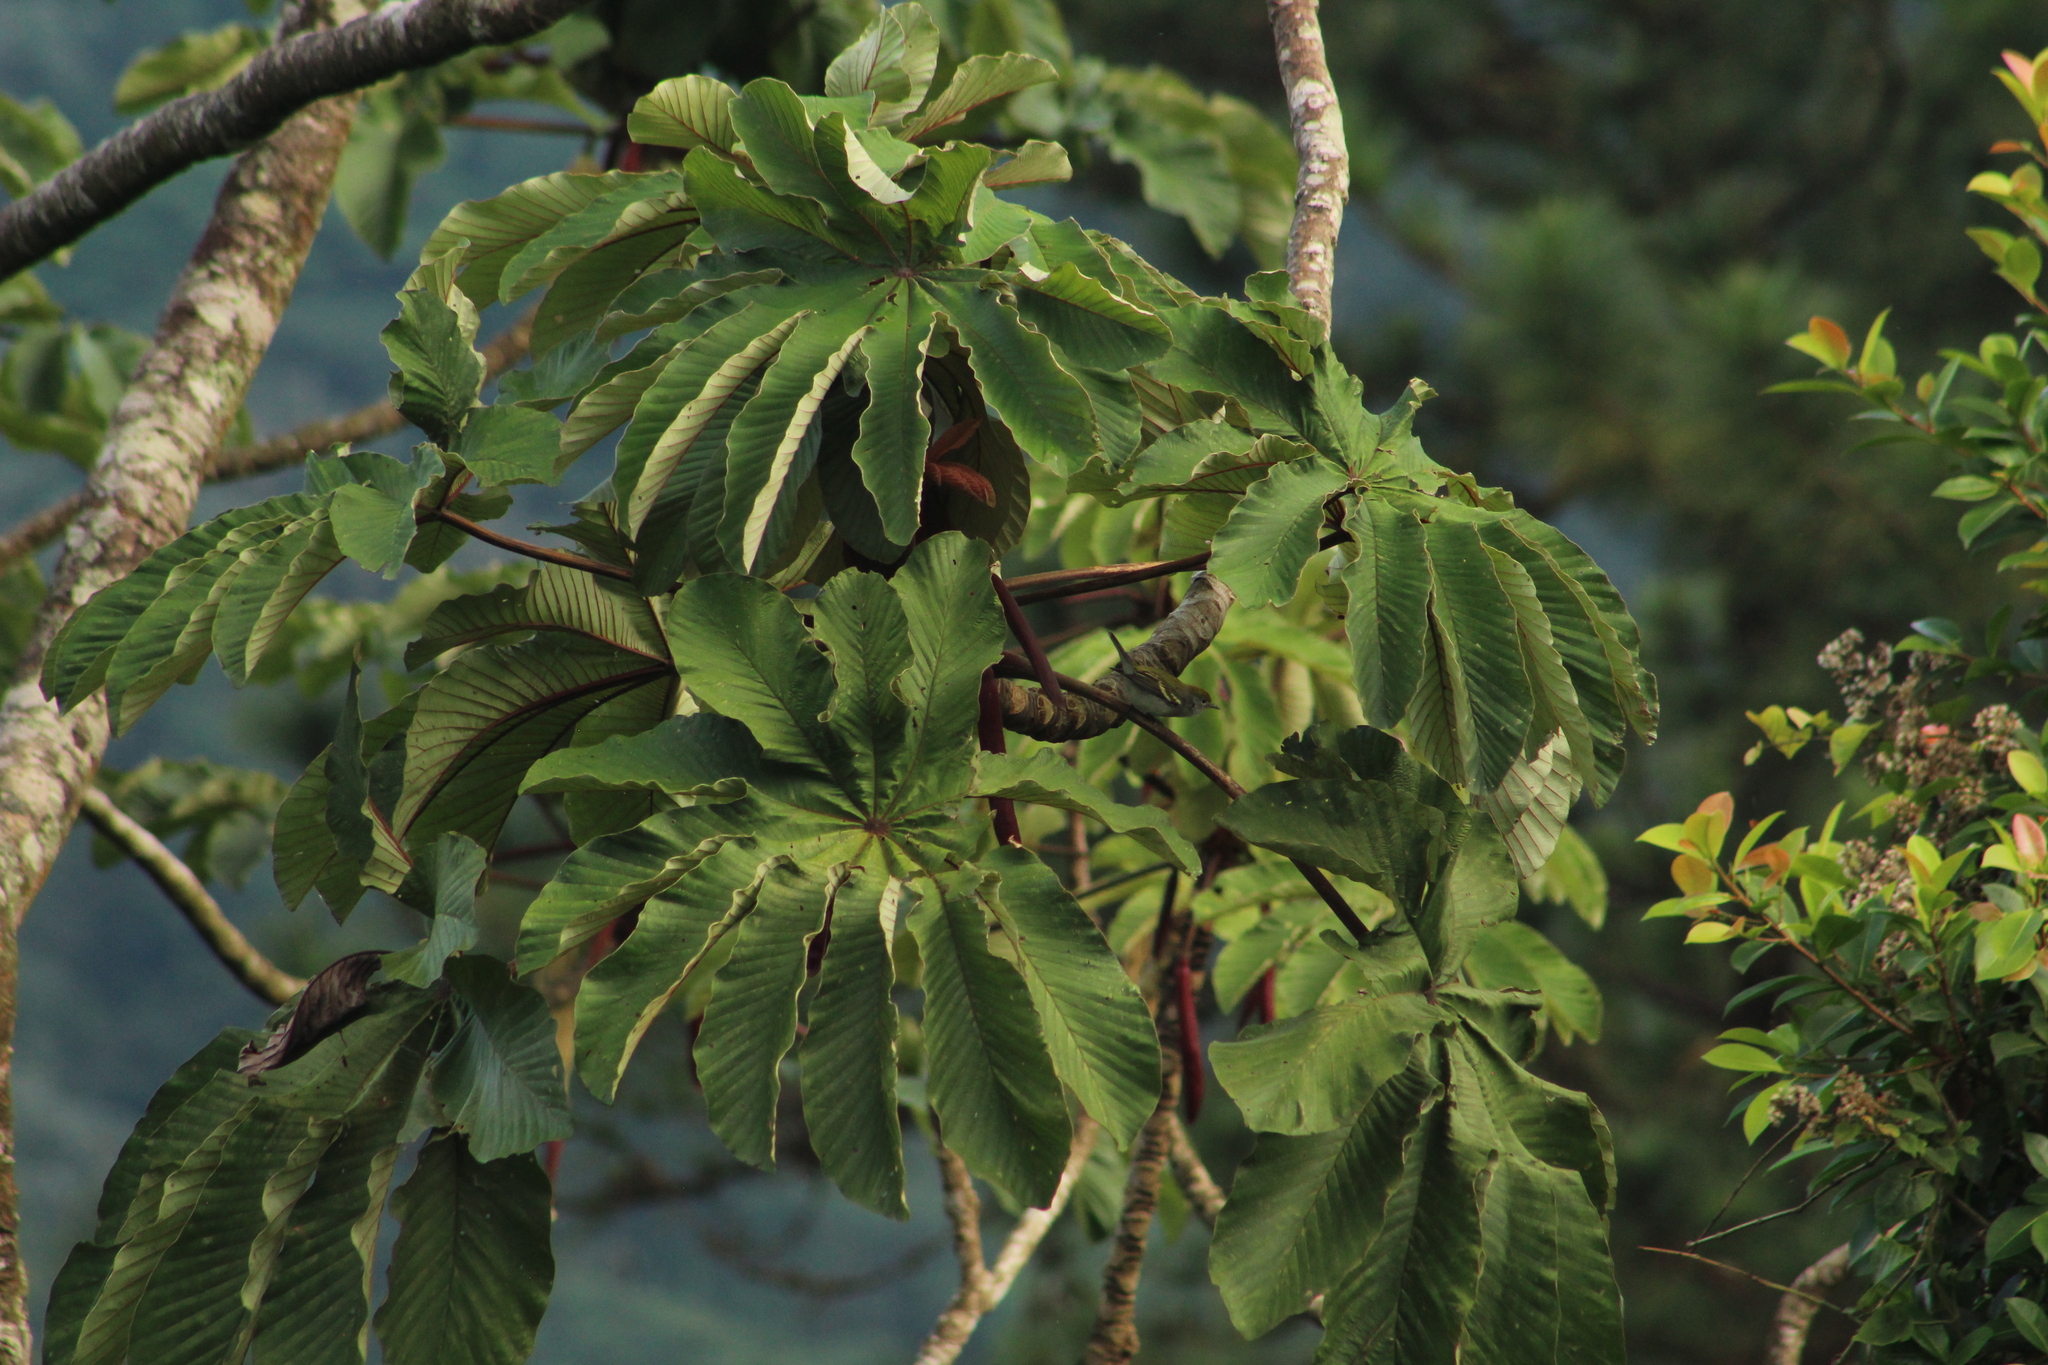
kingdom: Animalia
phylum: Chordata
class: Aves
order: Passeriformes
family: Parulidae
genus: Setophaga
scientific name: Setophaga pensylvanica
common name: Chestnut-sided warbler
